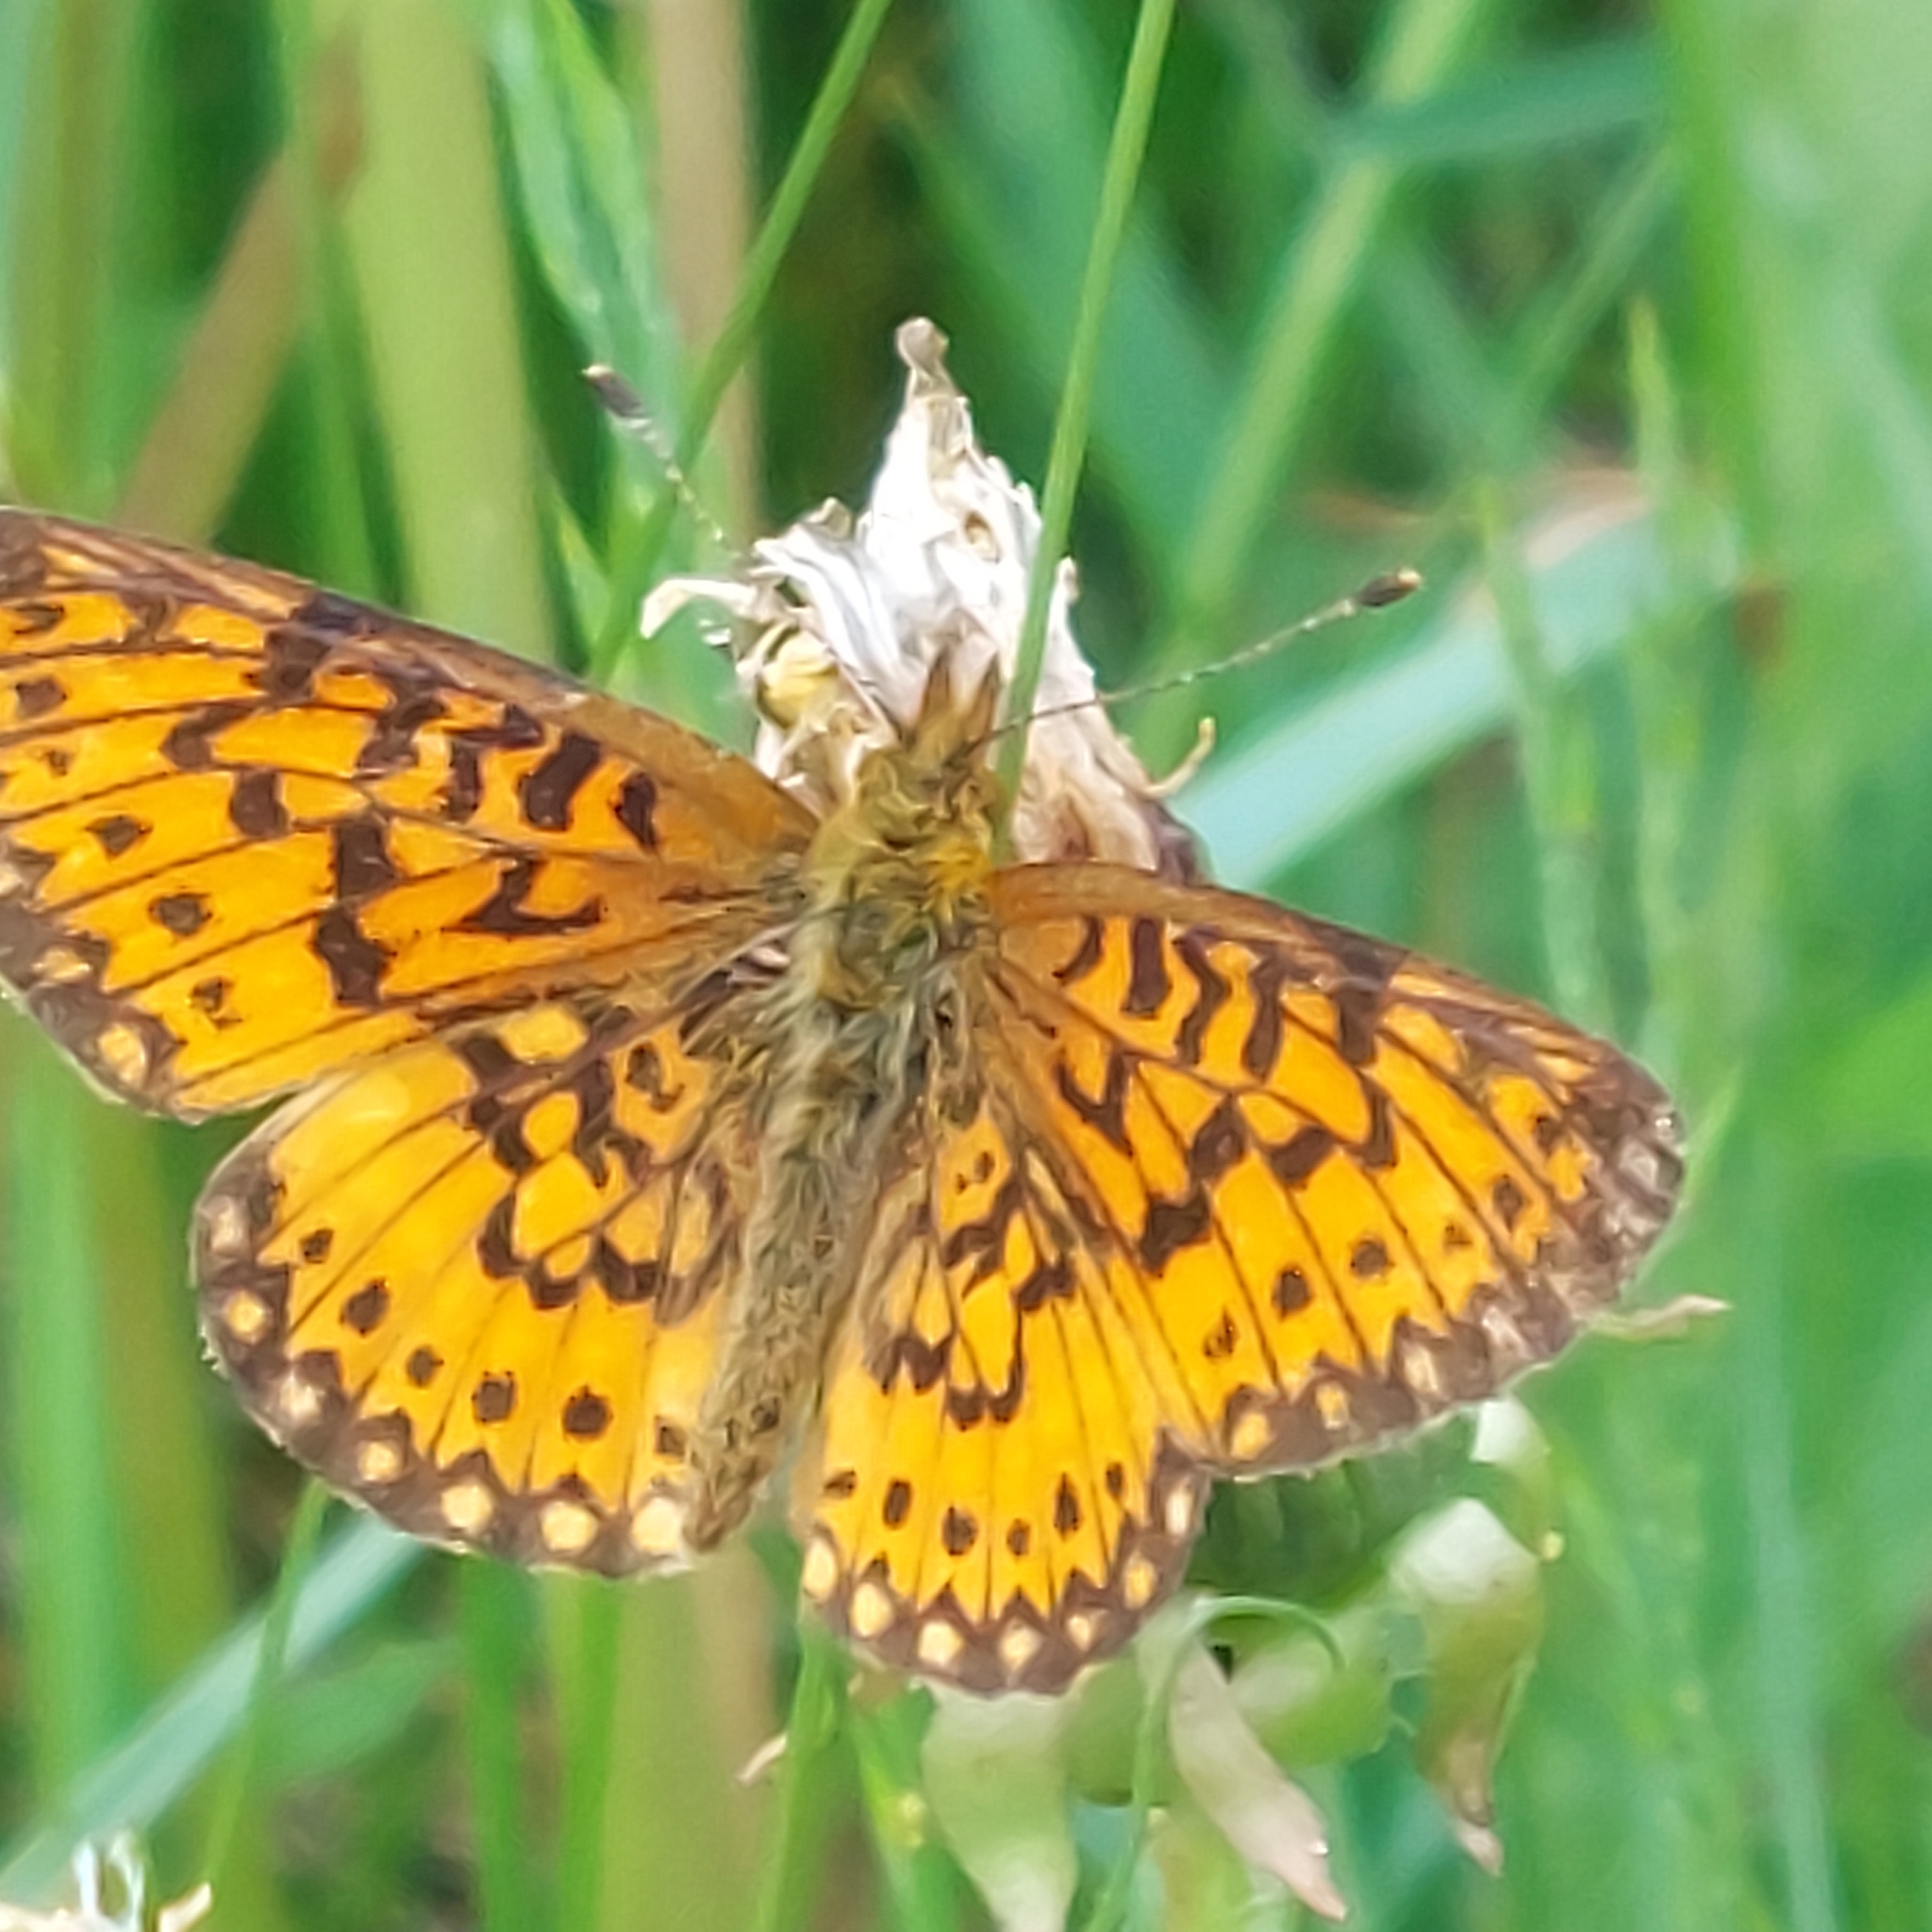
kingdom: Animalia
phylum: Arthropoda
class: Insecta
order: Lepidoptera
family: Nymphalidae
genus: Boloria
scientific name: Boloria
